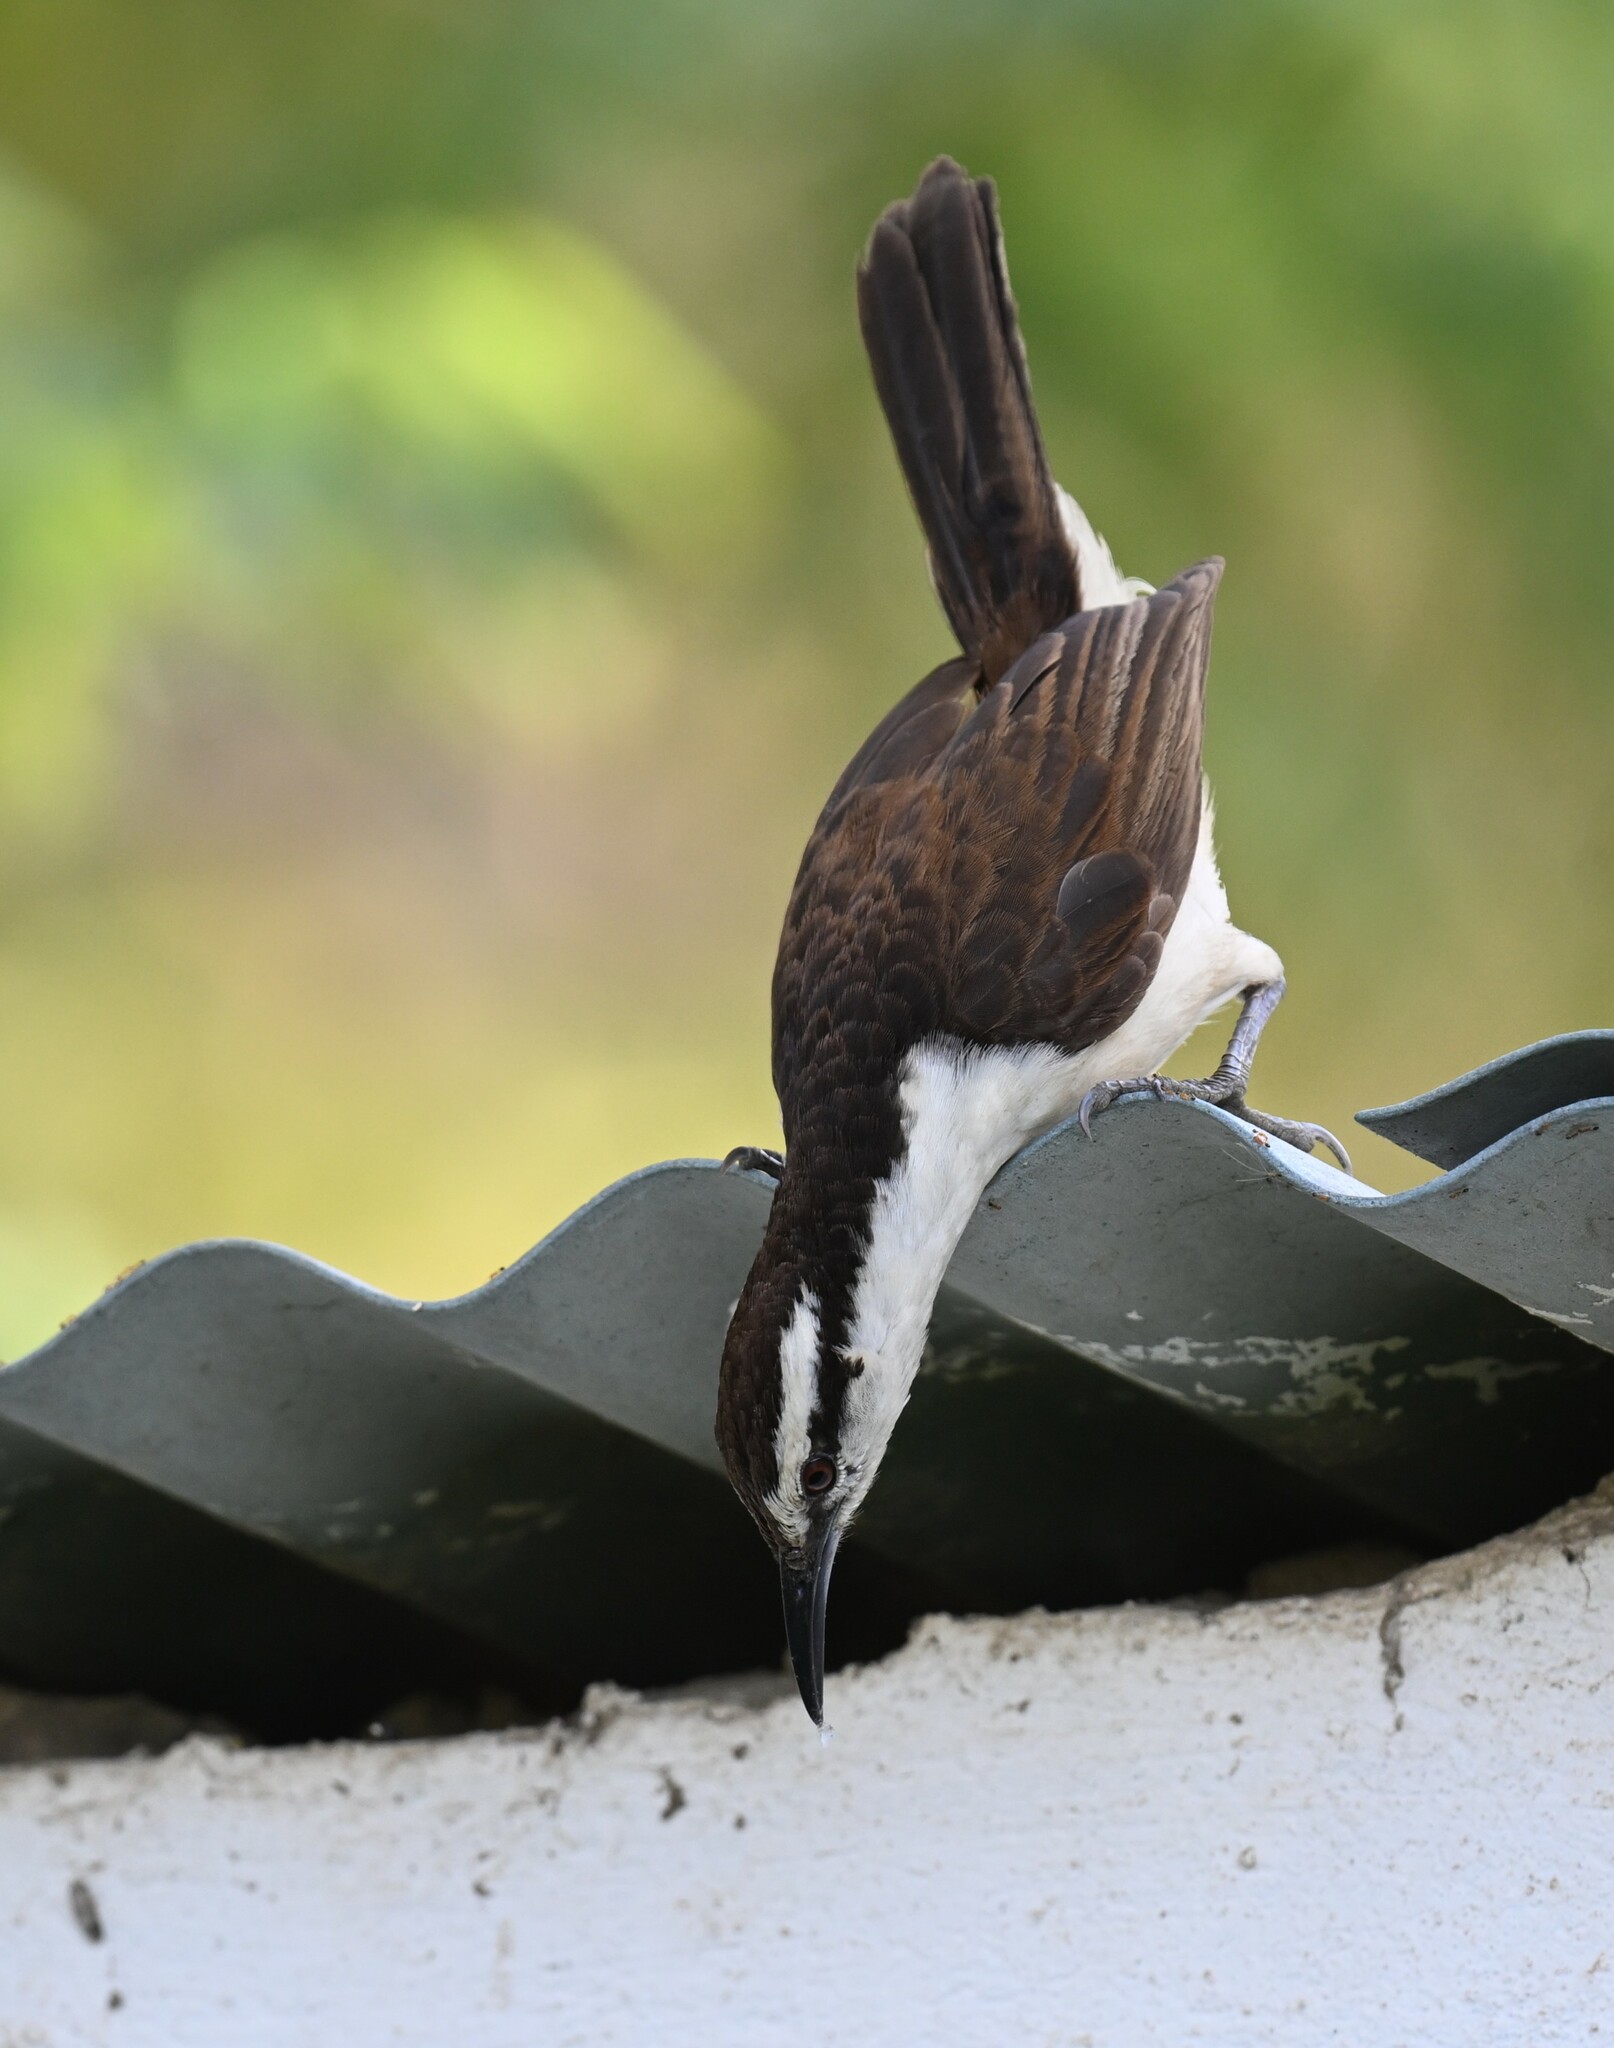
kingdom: Animalia
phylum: Chordata
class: Aves
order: Passeriformes
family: Troglodytidae
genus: Campylorhynchus
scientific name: Campylorhynchus griseus
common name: Bicolored wren
